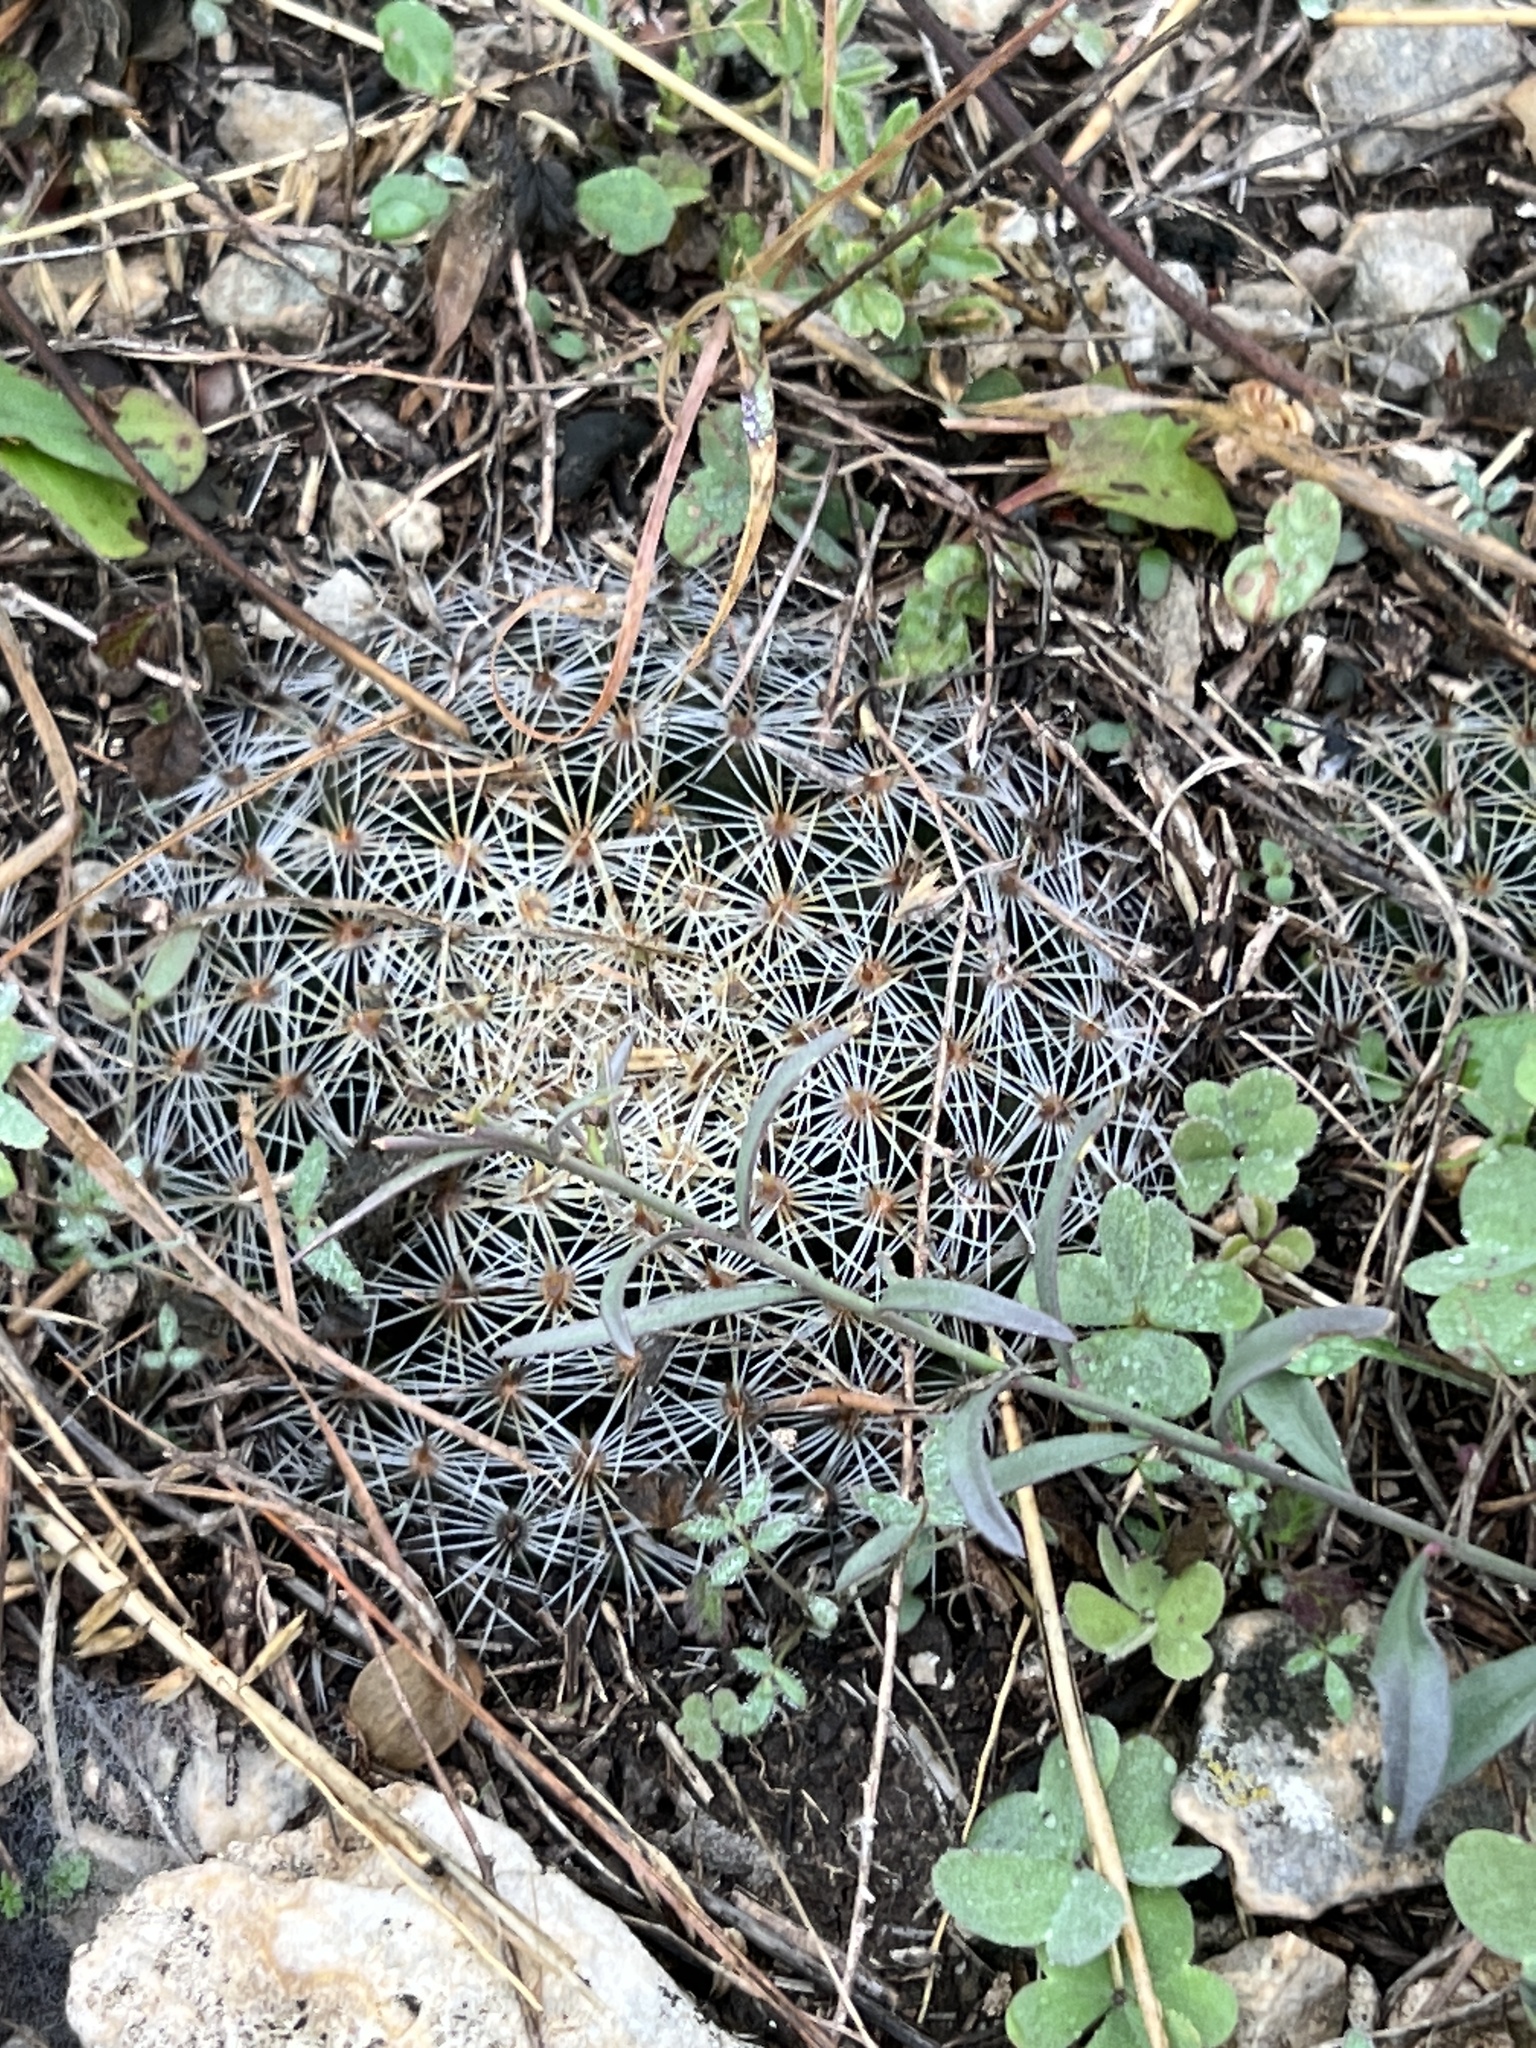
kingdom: Plantae
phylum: Tracheophyta
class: Magnoliopsida
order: Caryophyllales
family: Cactaceae
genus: Mammillaria
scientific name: Mammillaria heyderi
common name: Little nipple cactus
